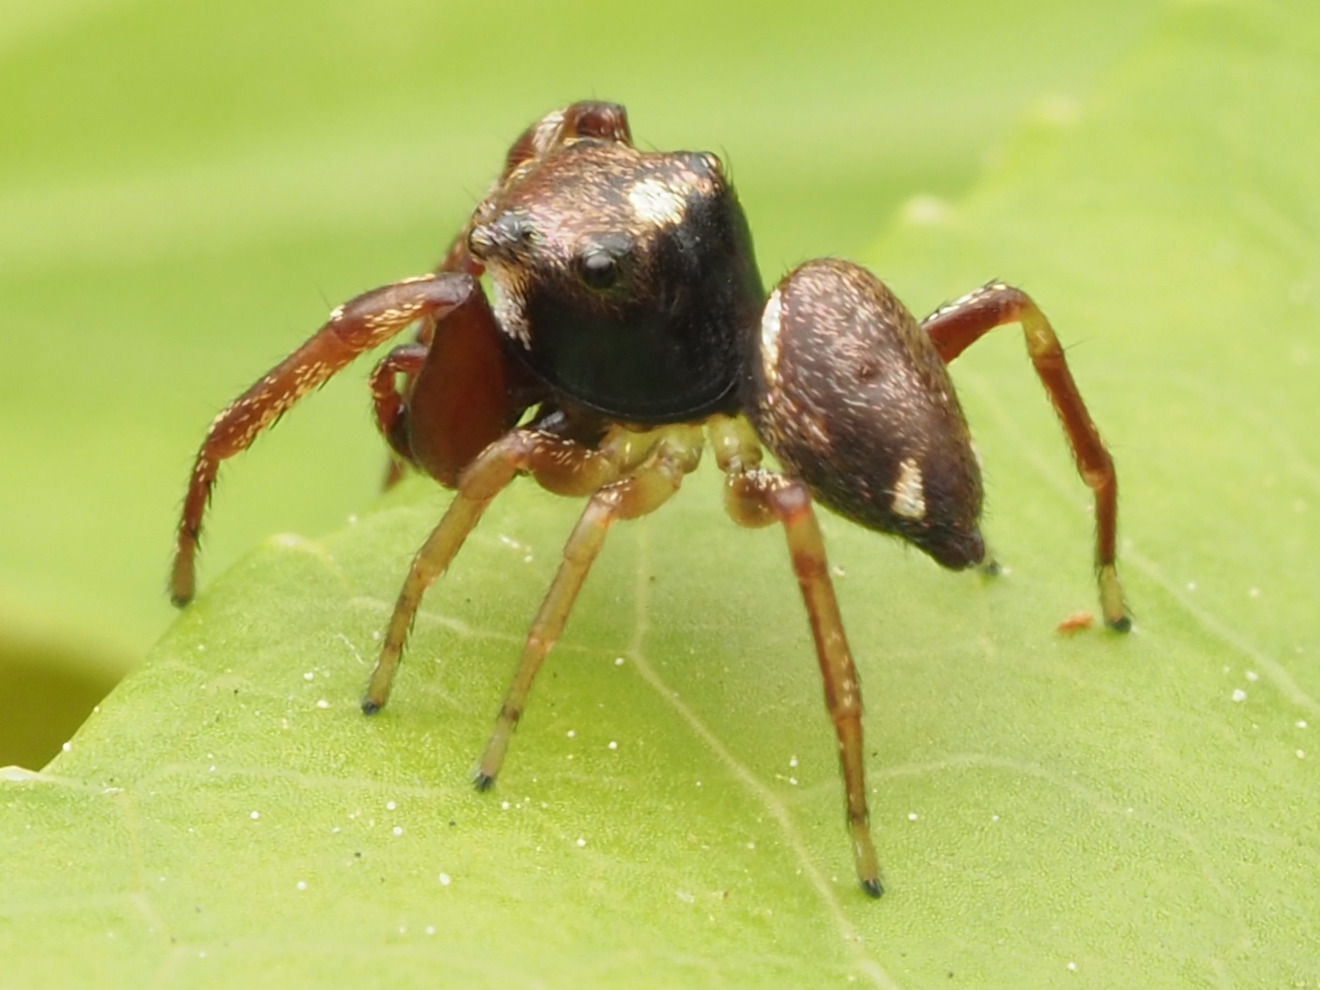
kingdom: Animalia
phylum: Arthropoda
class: Arachnida
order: Araneae
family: Salticidae
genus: Zygoballus
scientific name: Zygoballus rufipes
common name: Jumping spiders
